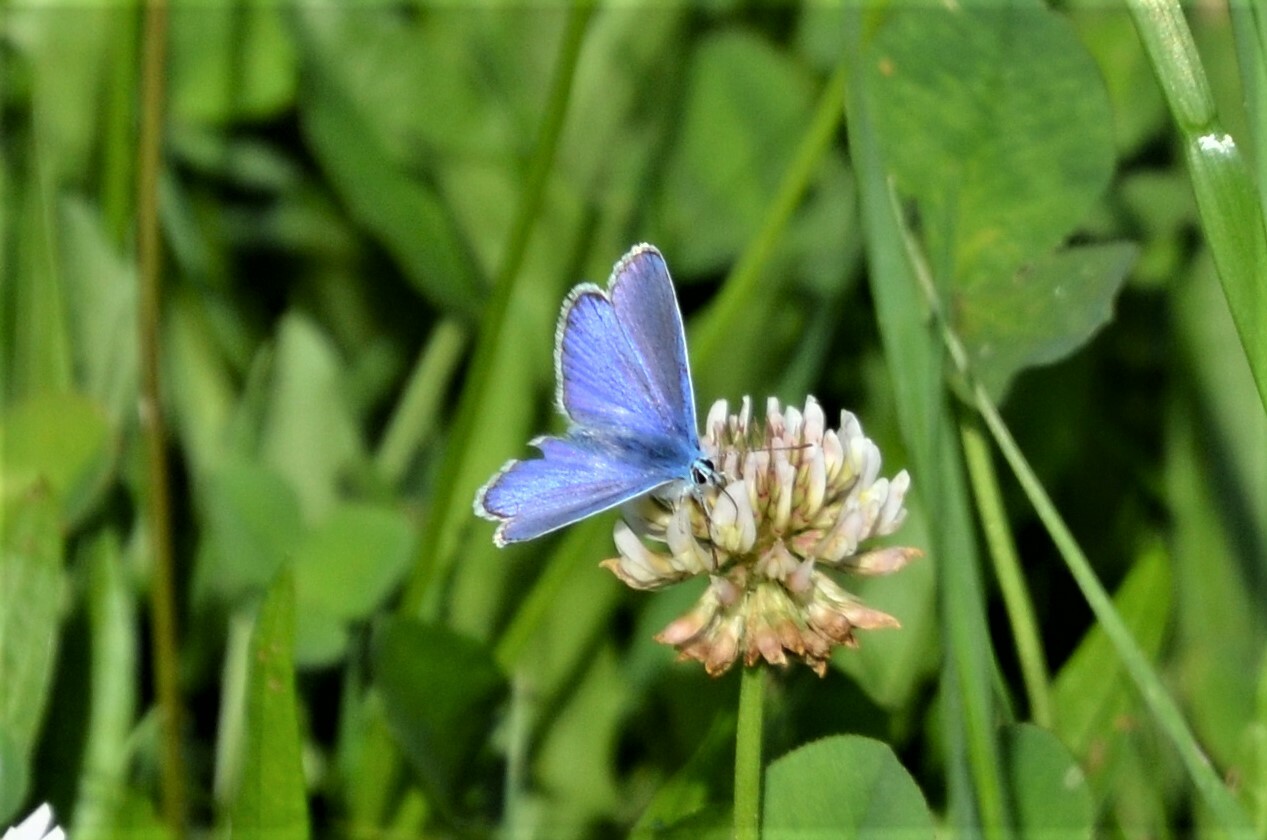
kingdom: Animalia
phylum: Arthropoda
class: Insecta
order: Lepidoptera
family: Lycaenidae
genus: Polyommatus
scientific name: Polyommatus icarus
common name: Common blue
